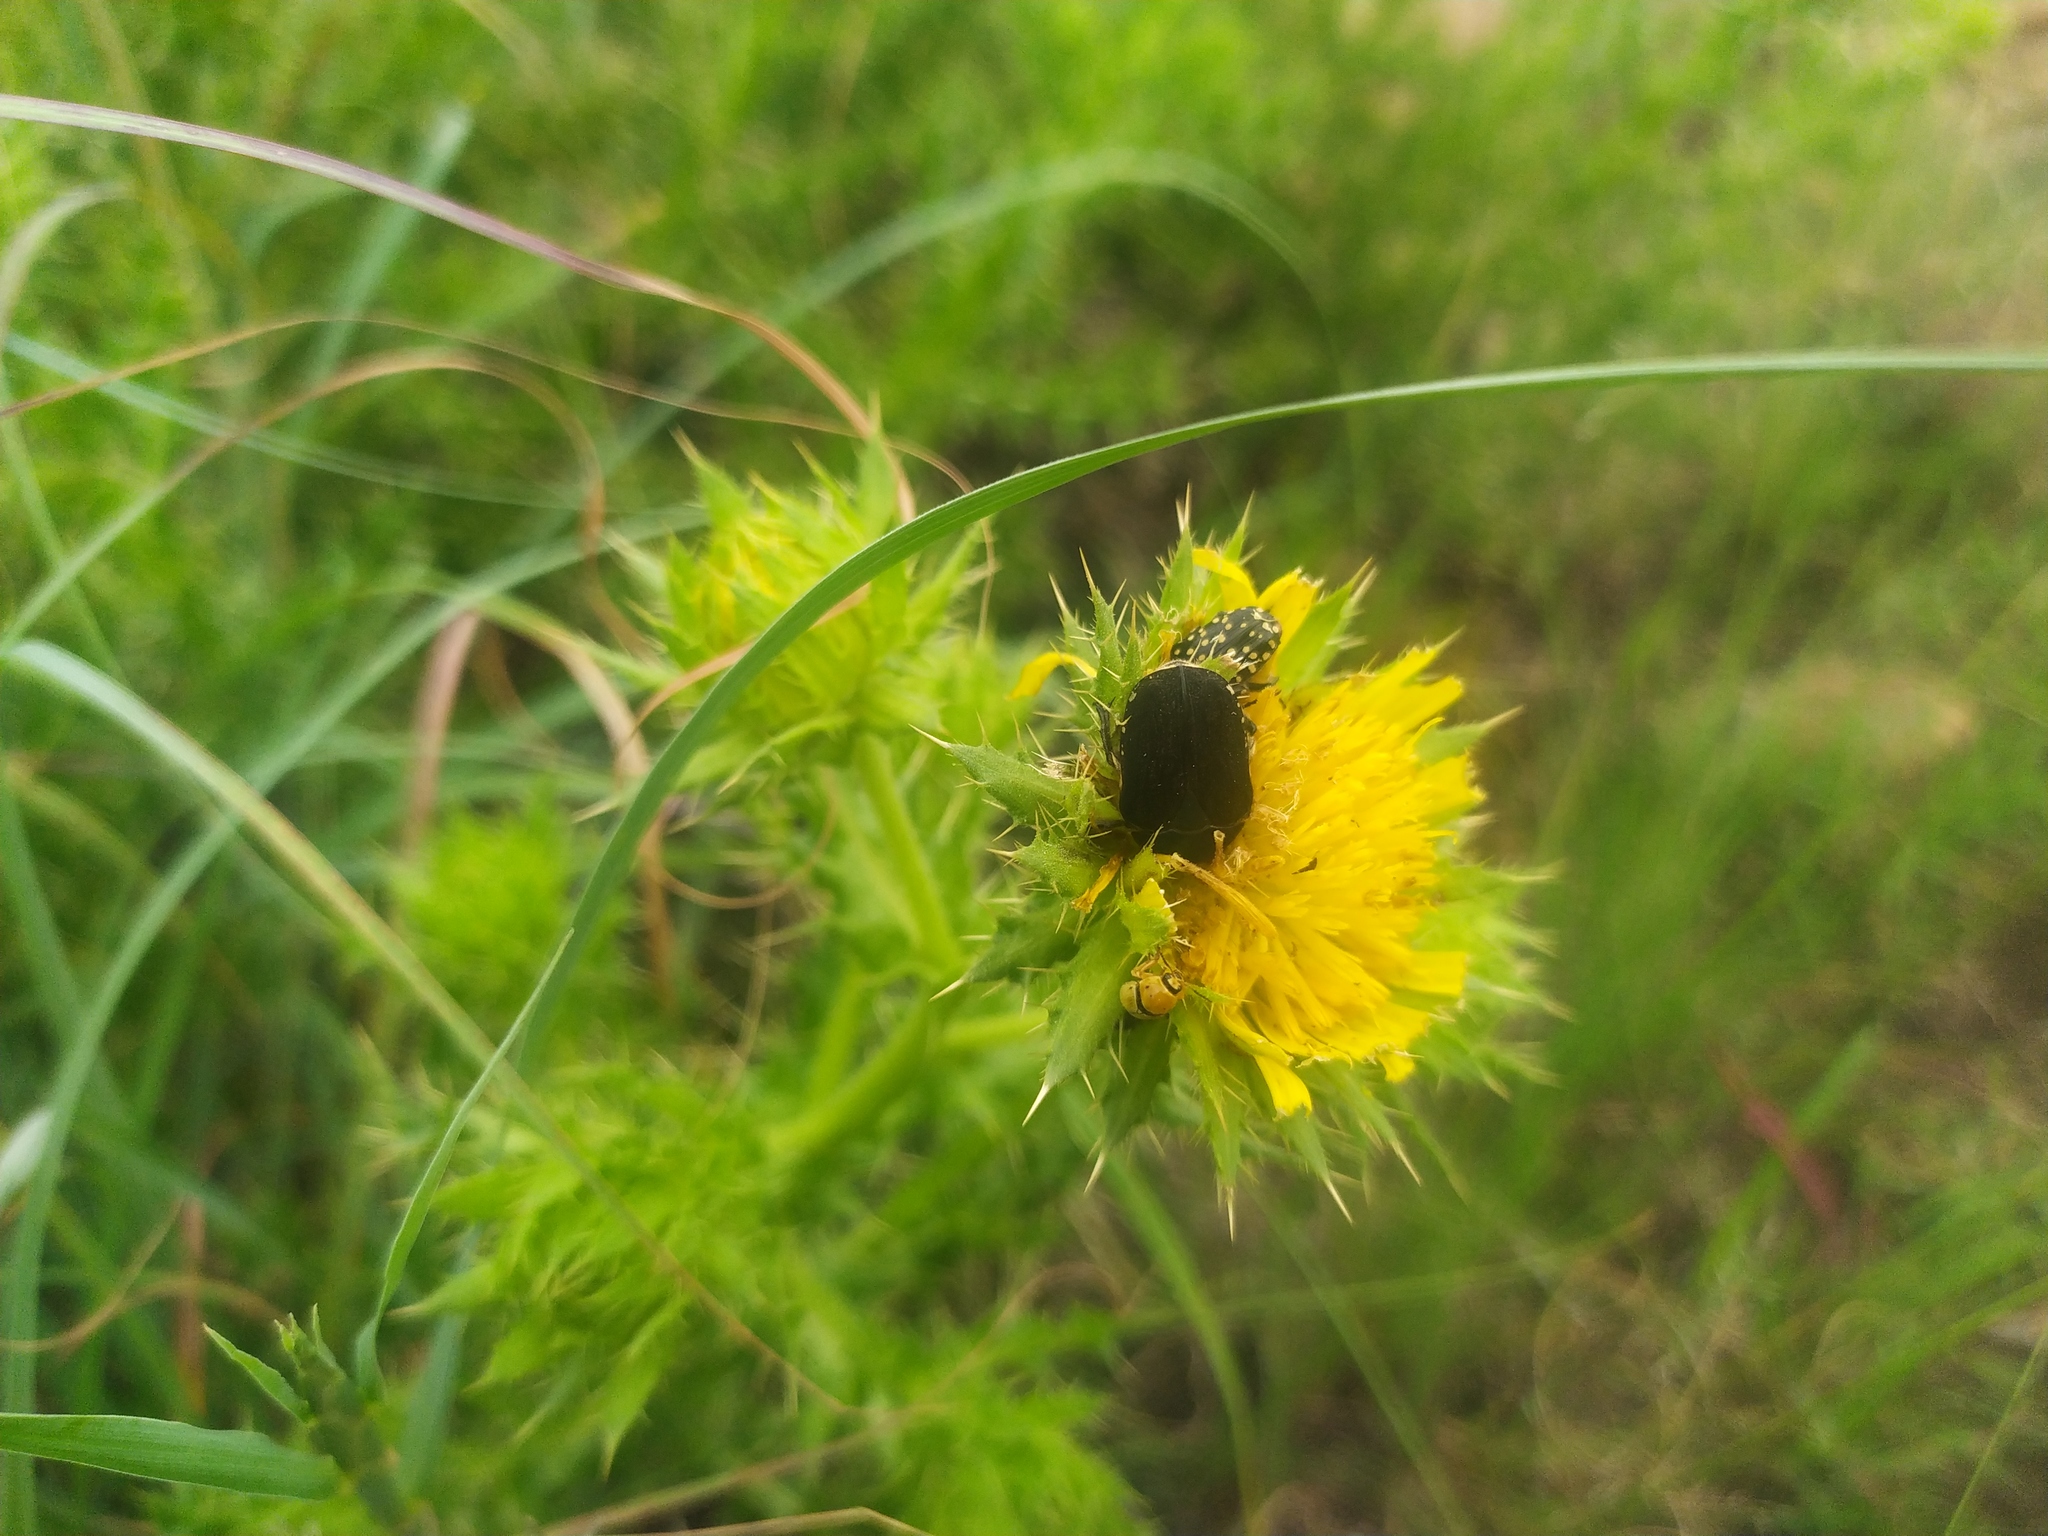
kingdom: Animalia
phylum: Arthropoda
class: Insecta
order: Coleoptera
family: Scarabaeidae
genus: Tephraea
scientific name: Tephraea simonsi
